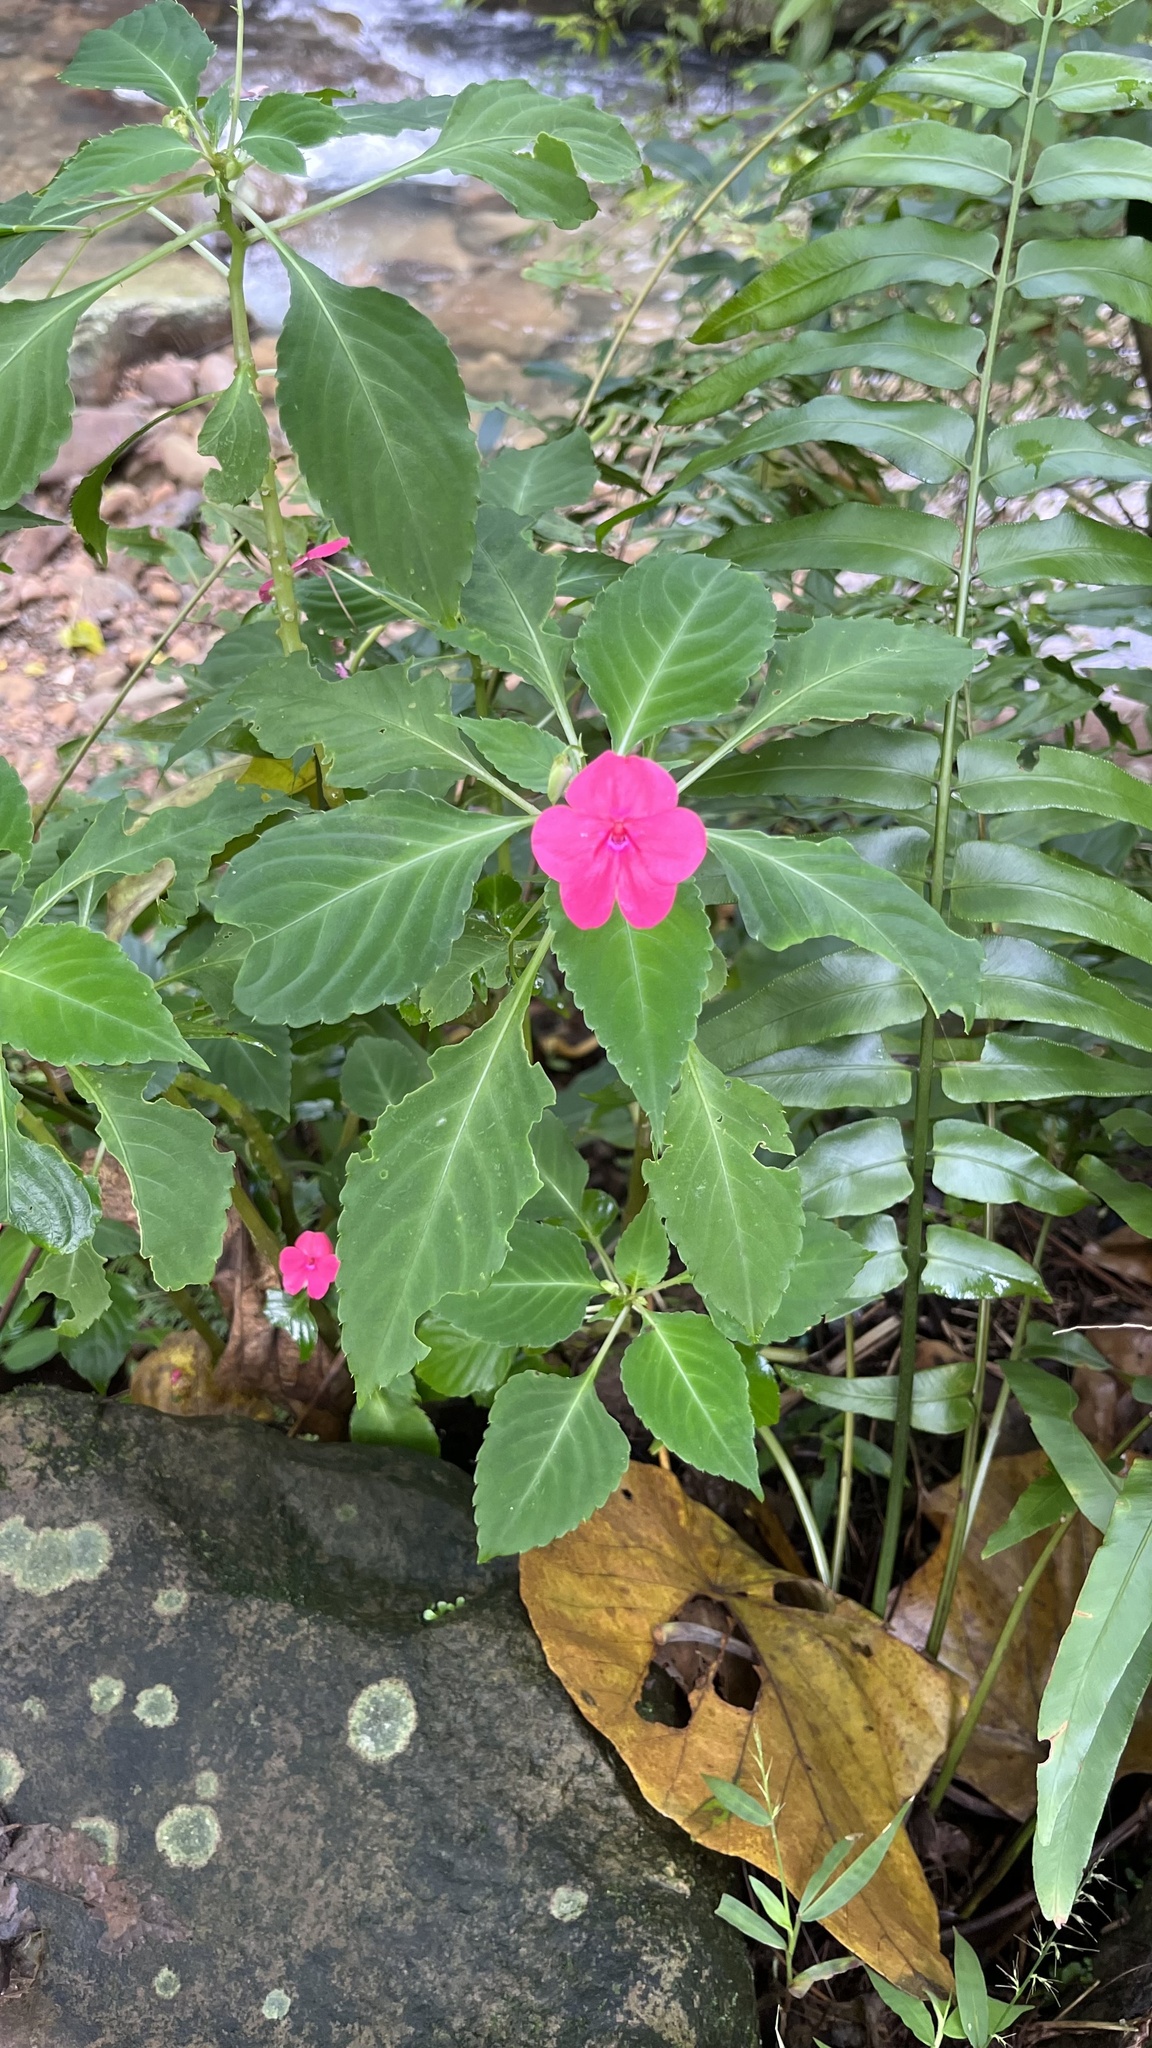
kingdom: Plantae
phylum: Tracheophyta
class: Magnoliopsida
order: Ericales
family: Balsaminaceae
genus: Impatiens
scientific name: Impatiens walleriana
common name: Buzzy lizzy
